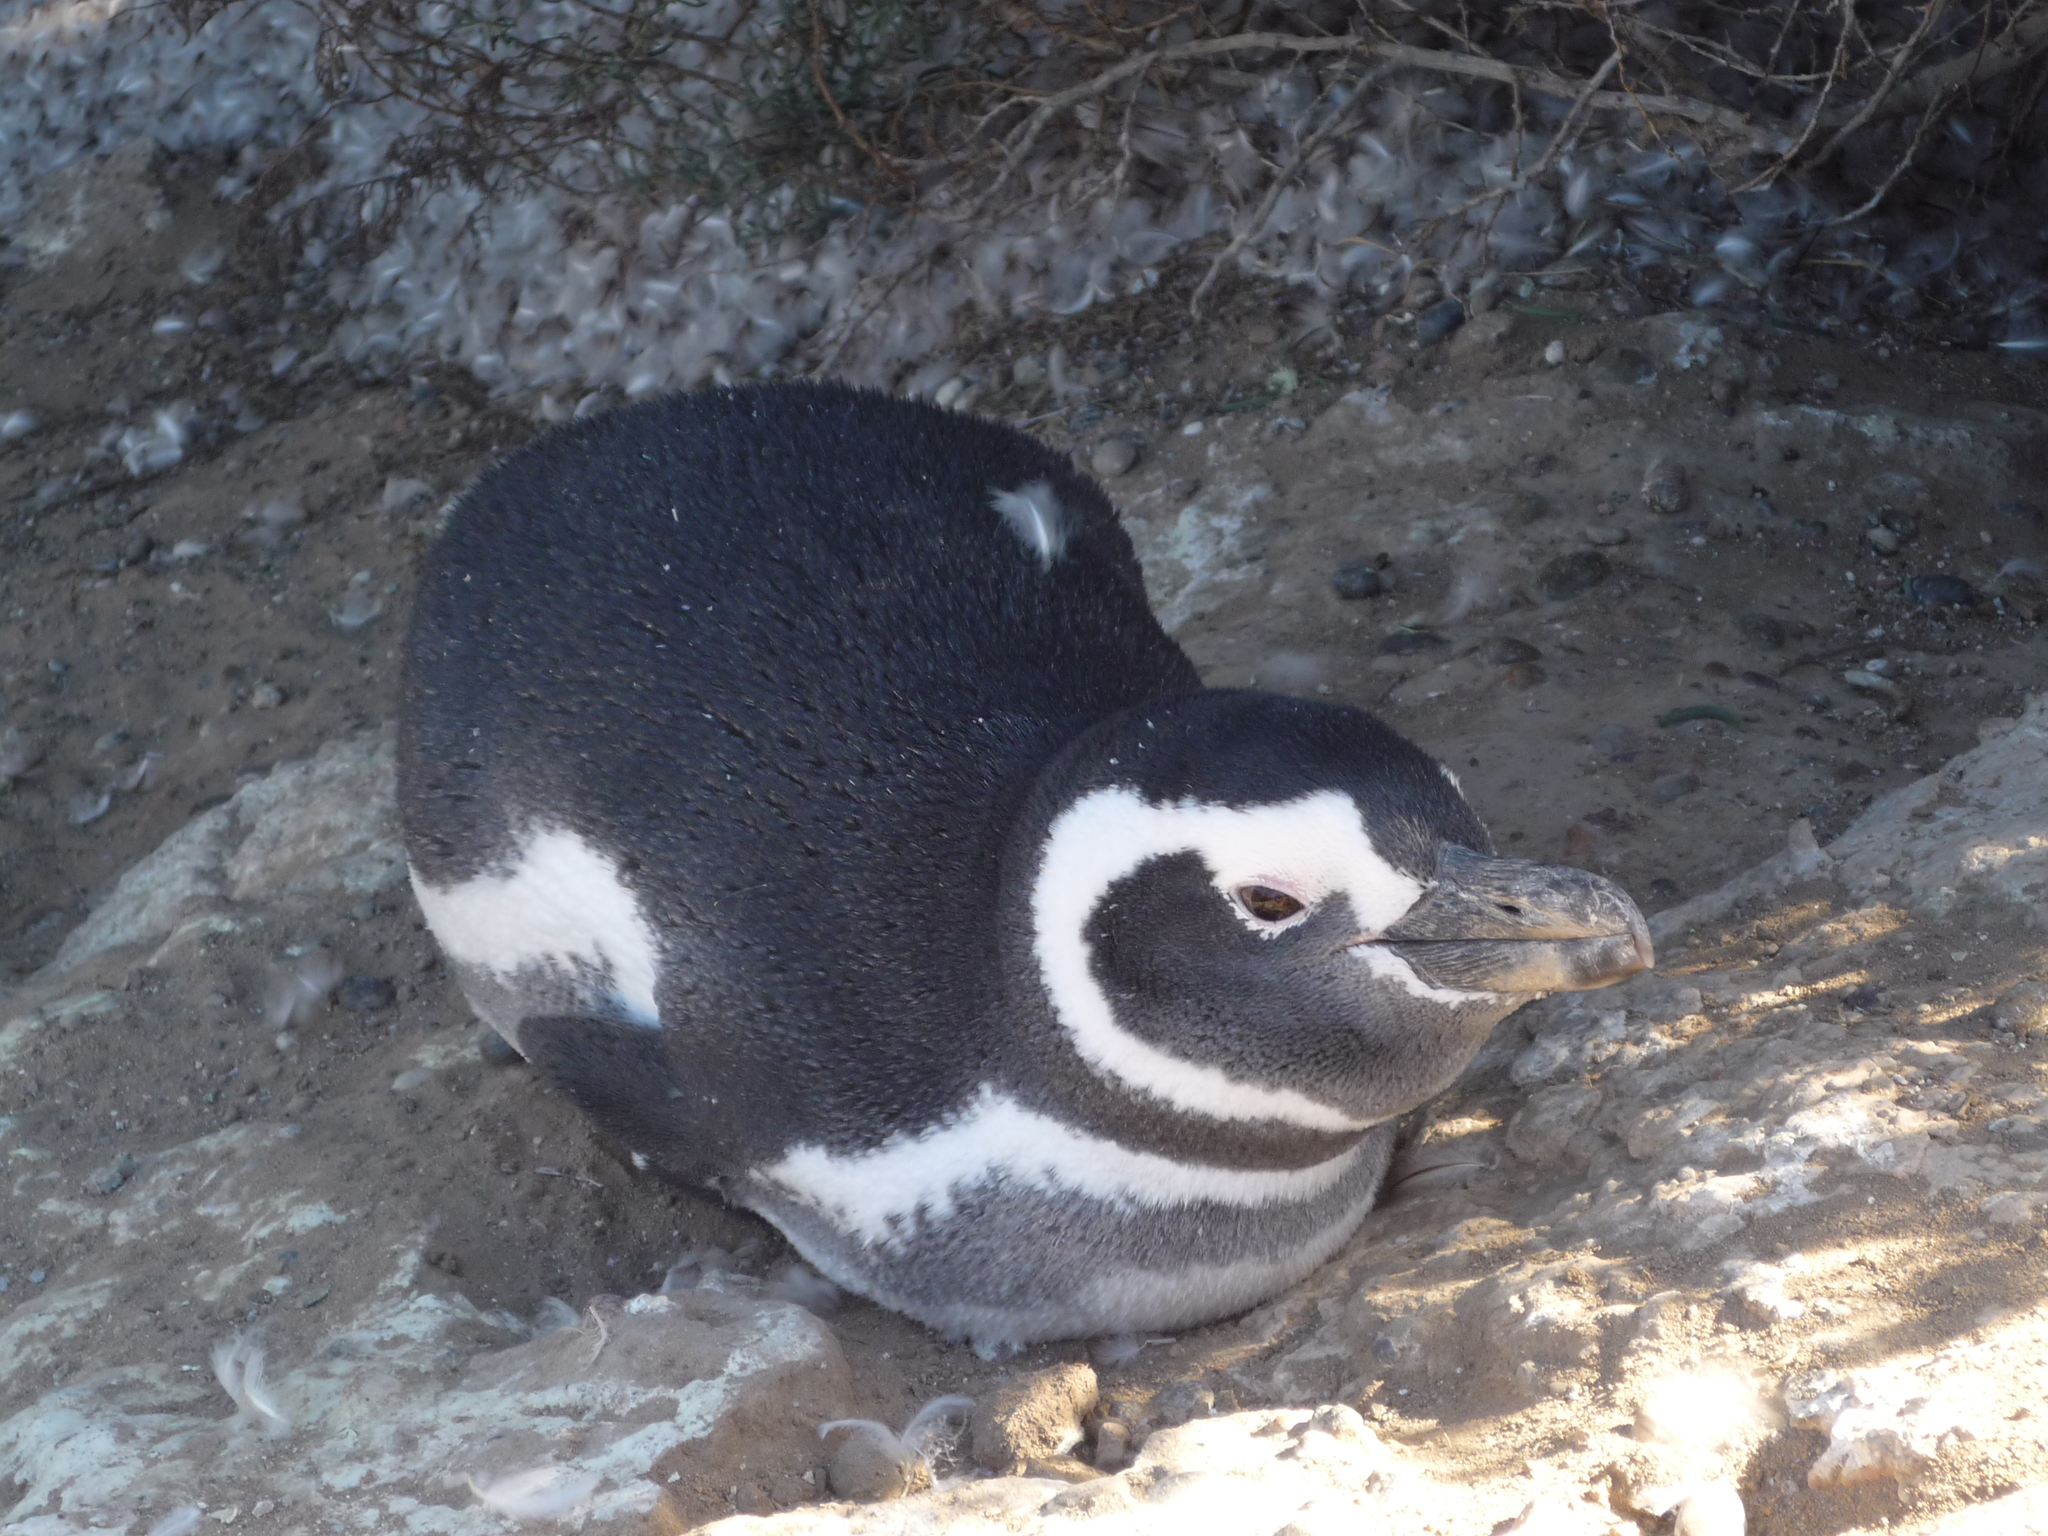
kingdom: Animalia
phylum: Chordata
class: Aves
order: Sphenisciformes
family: Spheniscidae
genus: Spheniscus
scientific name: Spheniscus magellanicus
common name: Magellanic penguin
